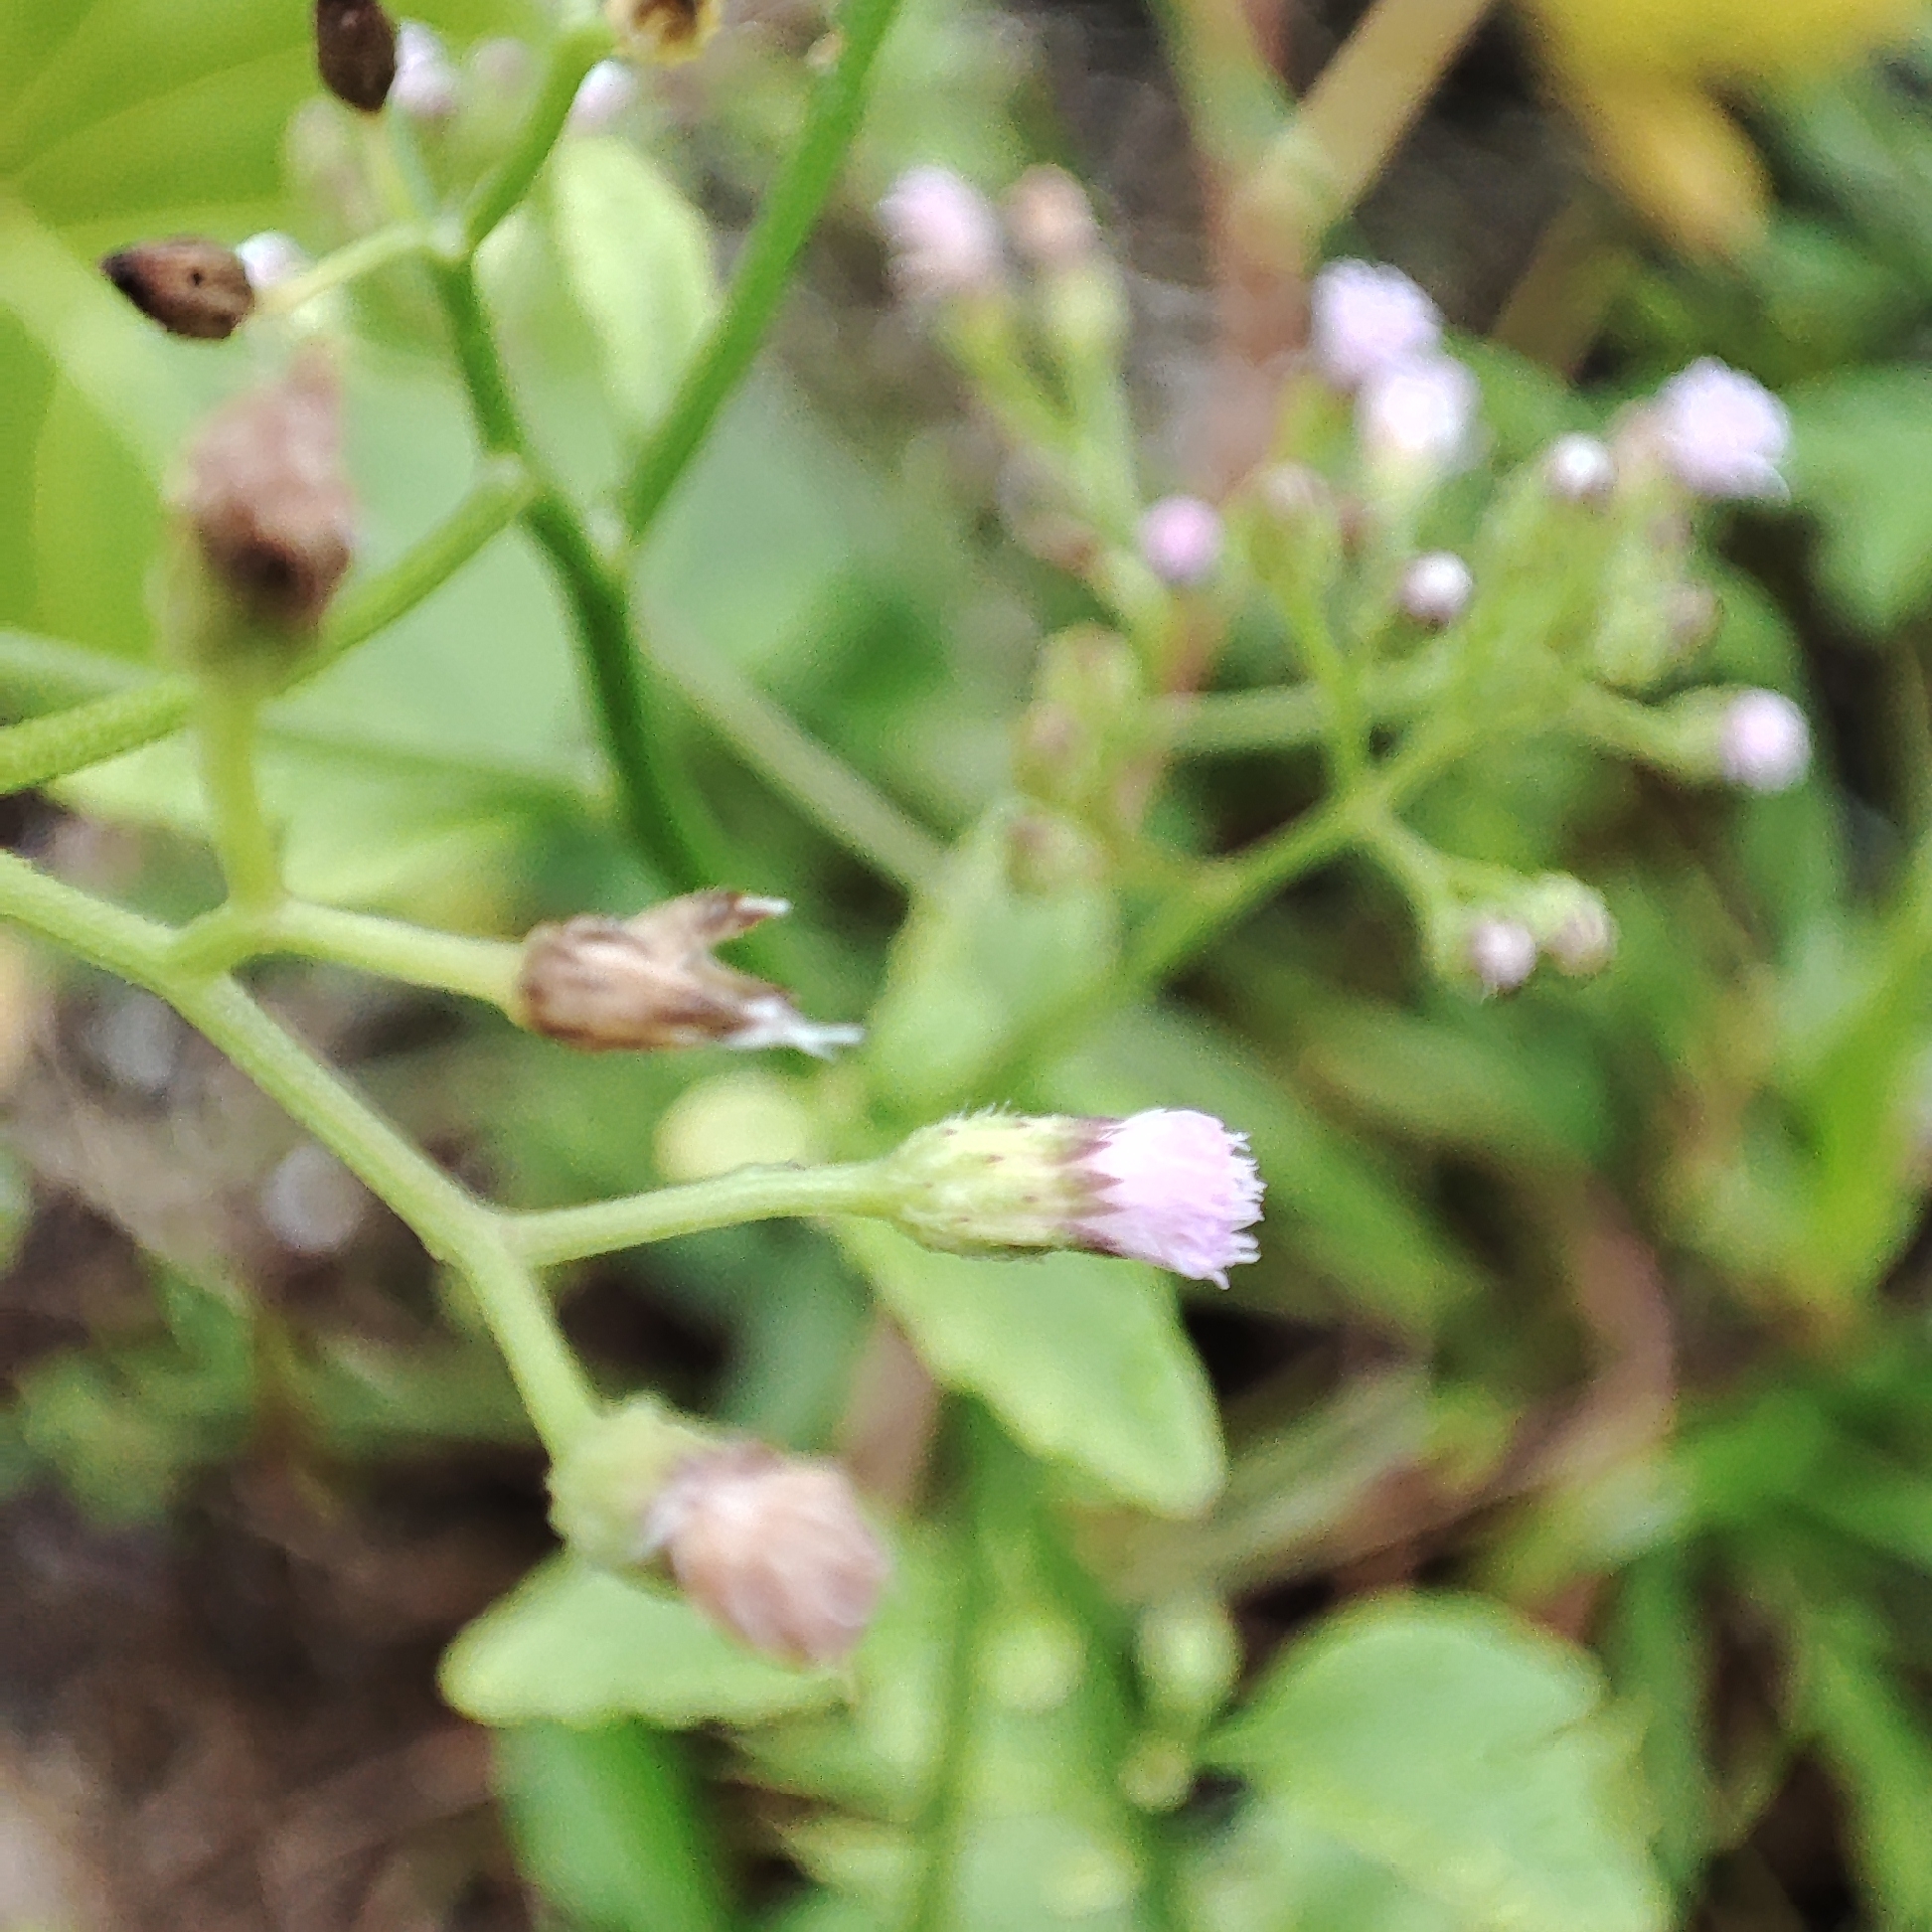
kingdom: Plantae
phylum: Tracheophyta
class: Magnoliopsida
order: Asterales
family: Asteraceae
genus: Cyanthillium
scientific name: Cyanthillium cinereum
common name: Little ironweed
